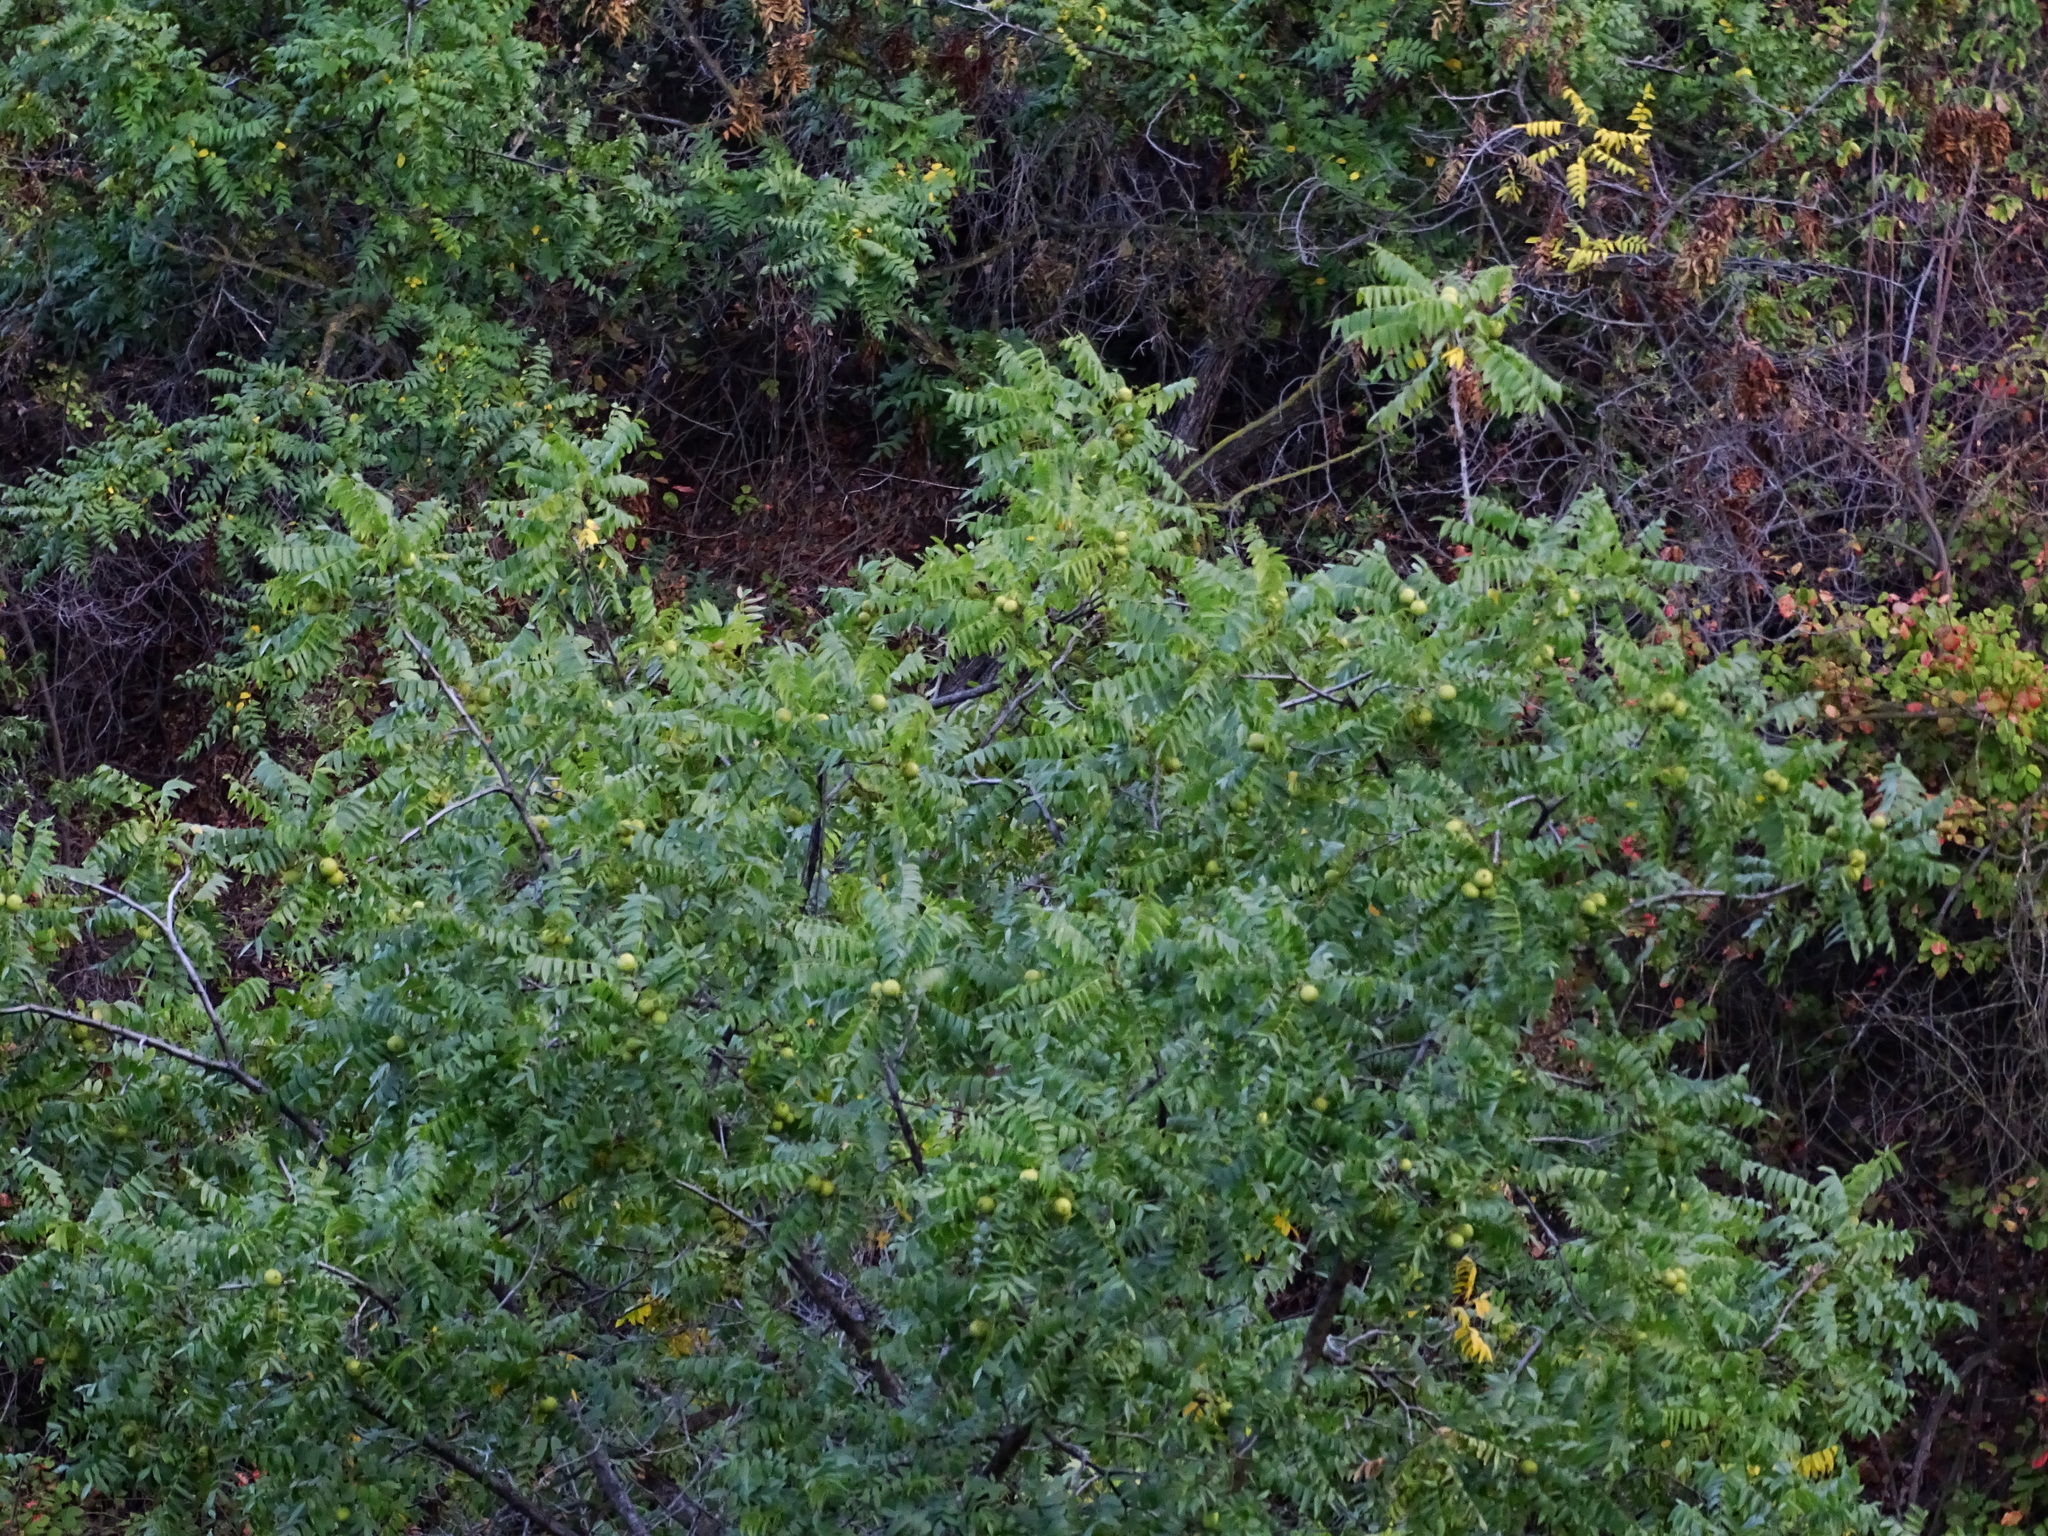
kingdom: Plantae
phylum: Tracheophyta
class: Magnoliopsida
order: Fagales
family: Juglandaceae
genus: Juglans
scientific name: Juglans californica
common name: Southern california black walnut
